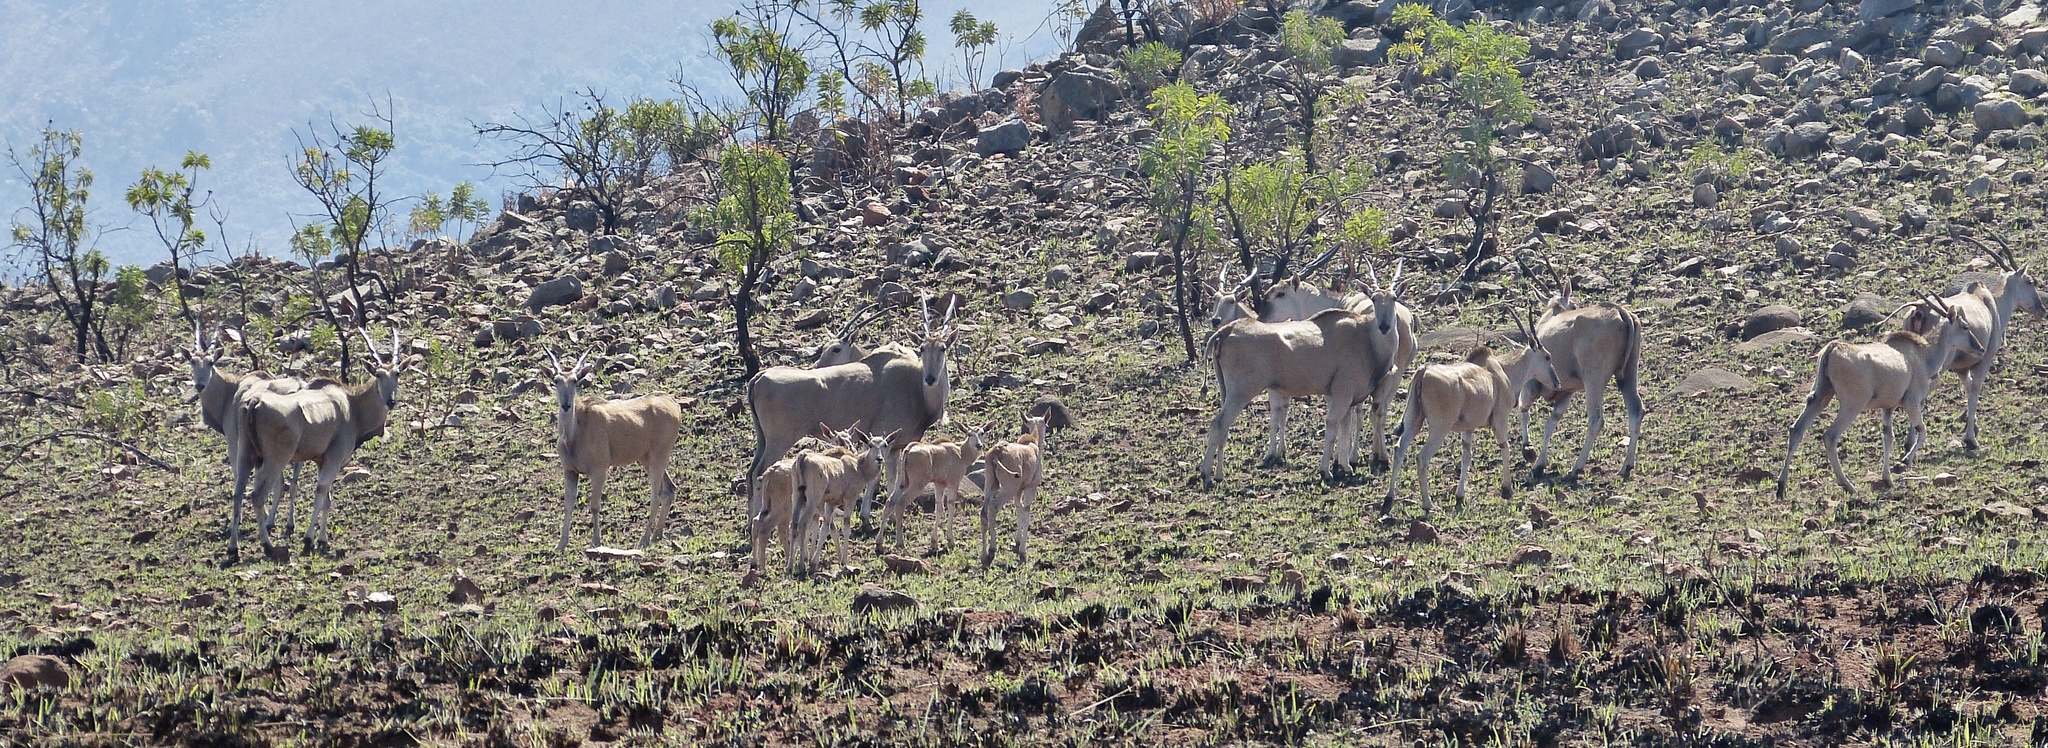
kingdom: Animalia
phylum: Chordata
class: Mammalia
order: Artiodactyla
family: Bovidae
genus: Taurotragus
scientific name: Taurotragus oryx
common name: Common eland
